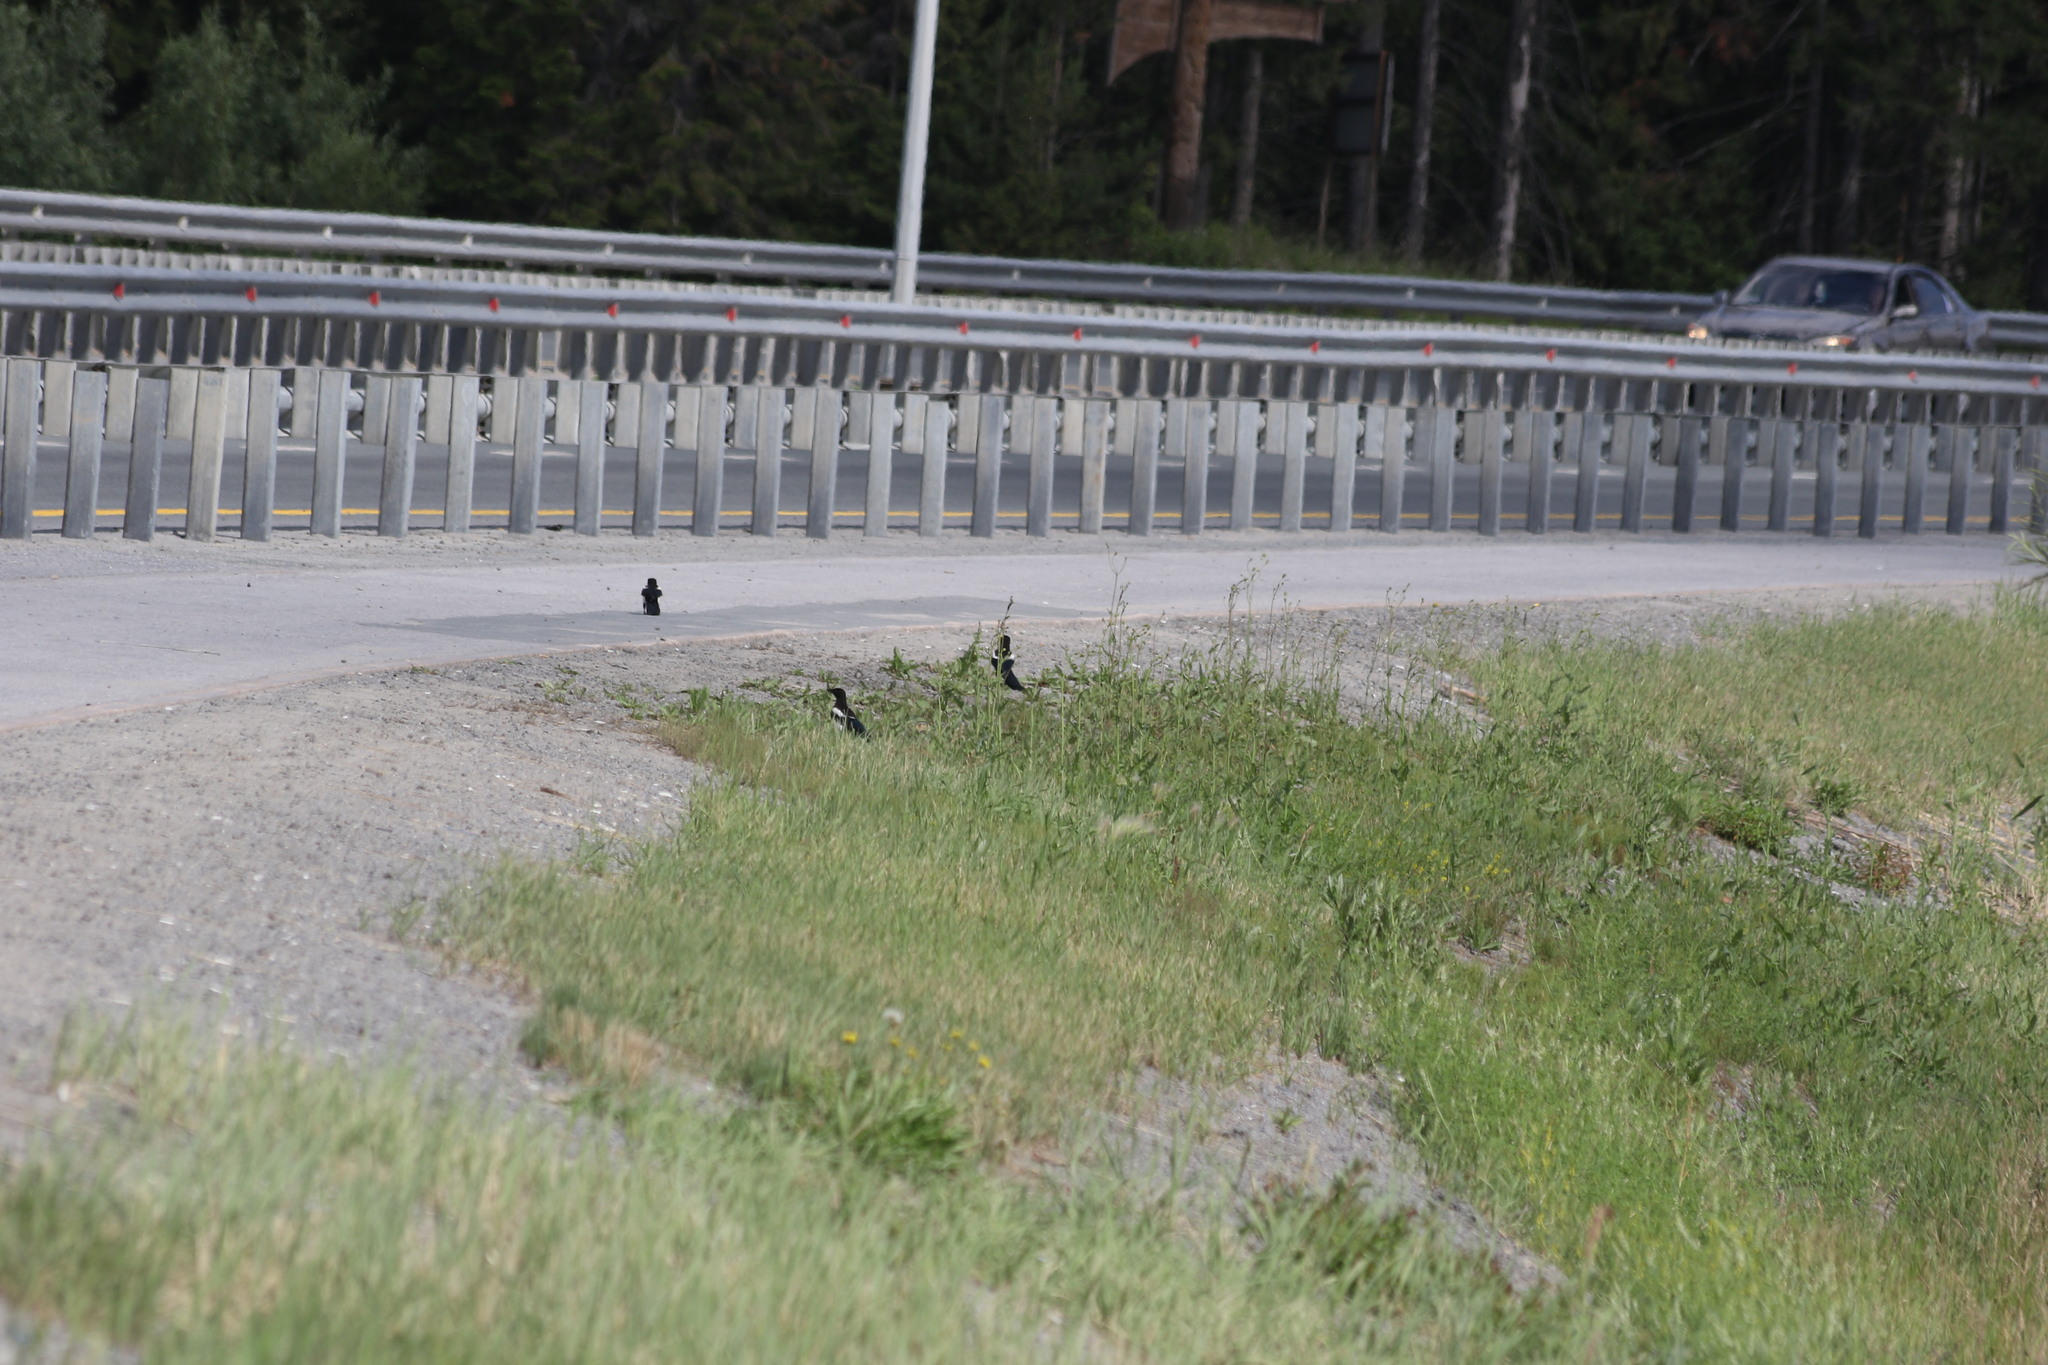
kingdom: Animalia
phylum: Chordata
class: Aves
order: Passeriformes
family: Corvidae
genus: Pica
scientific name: Pica pica
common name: Eurasian magpie
